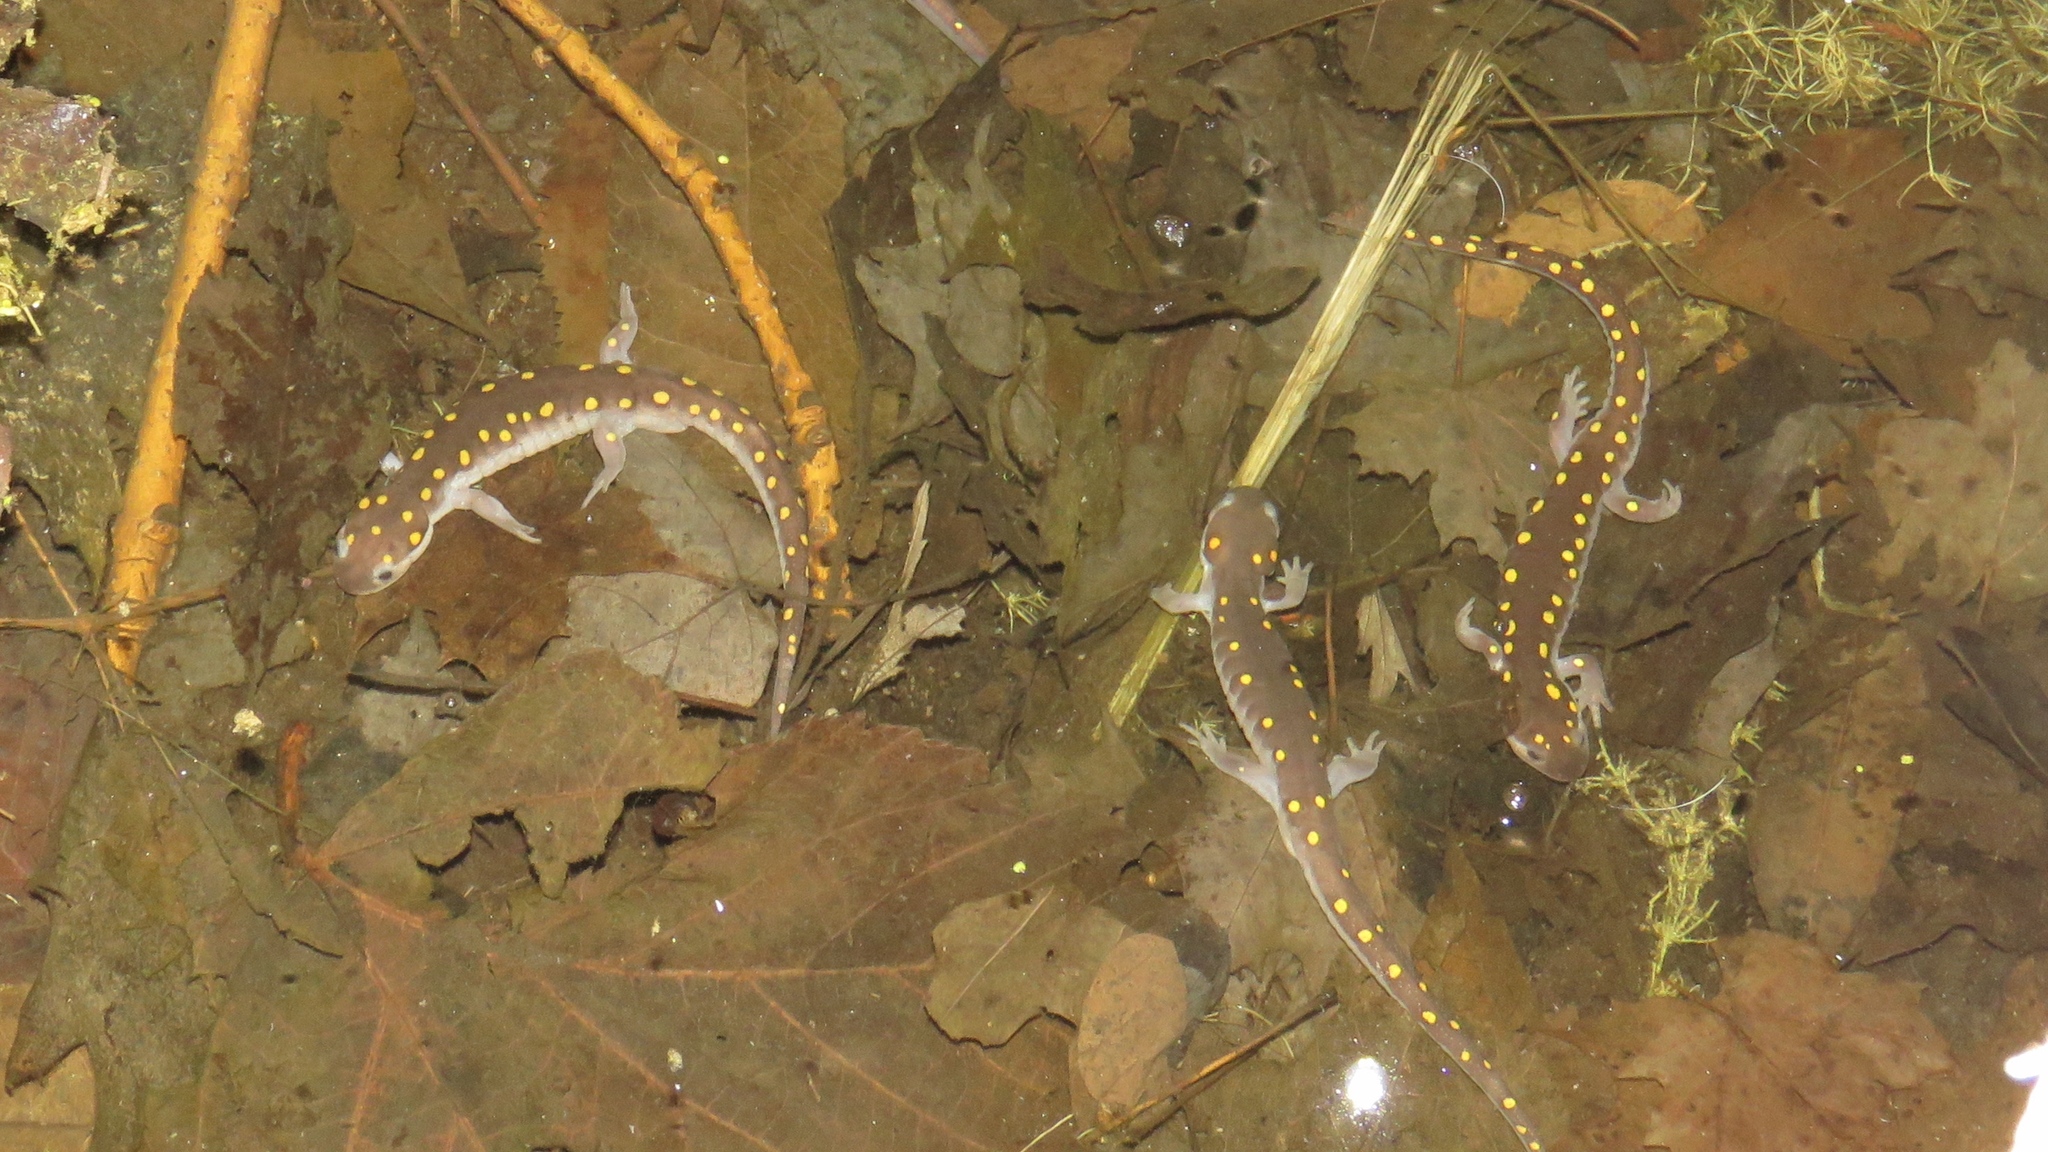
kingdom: Animalia
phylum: Chordata
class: Amphibia
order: Caudata
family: Ambystomatidae
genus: Ambystoma
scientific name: Ambystoma maculatum
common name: Spotted salamander
